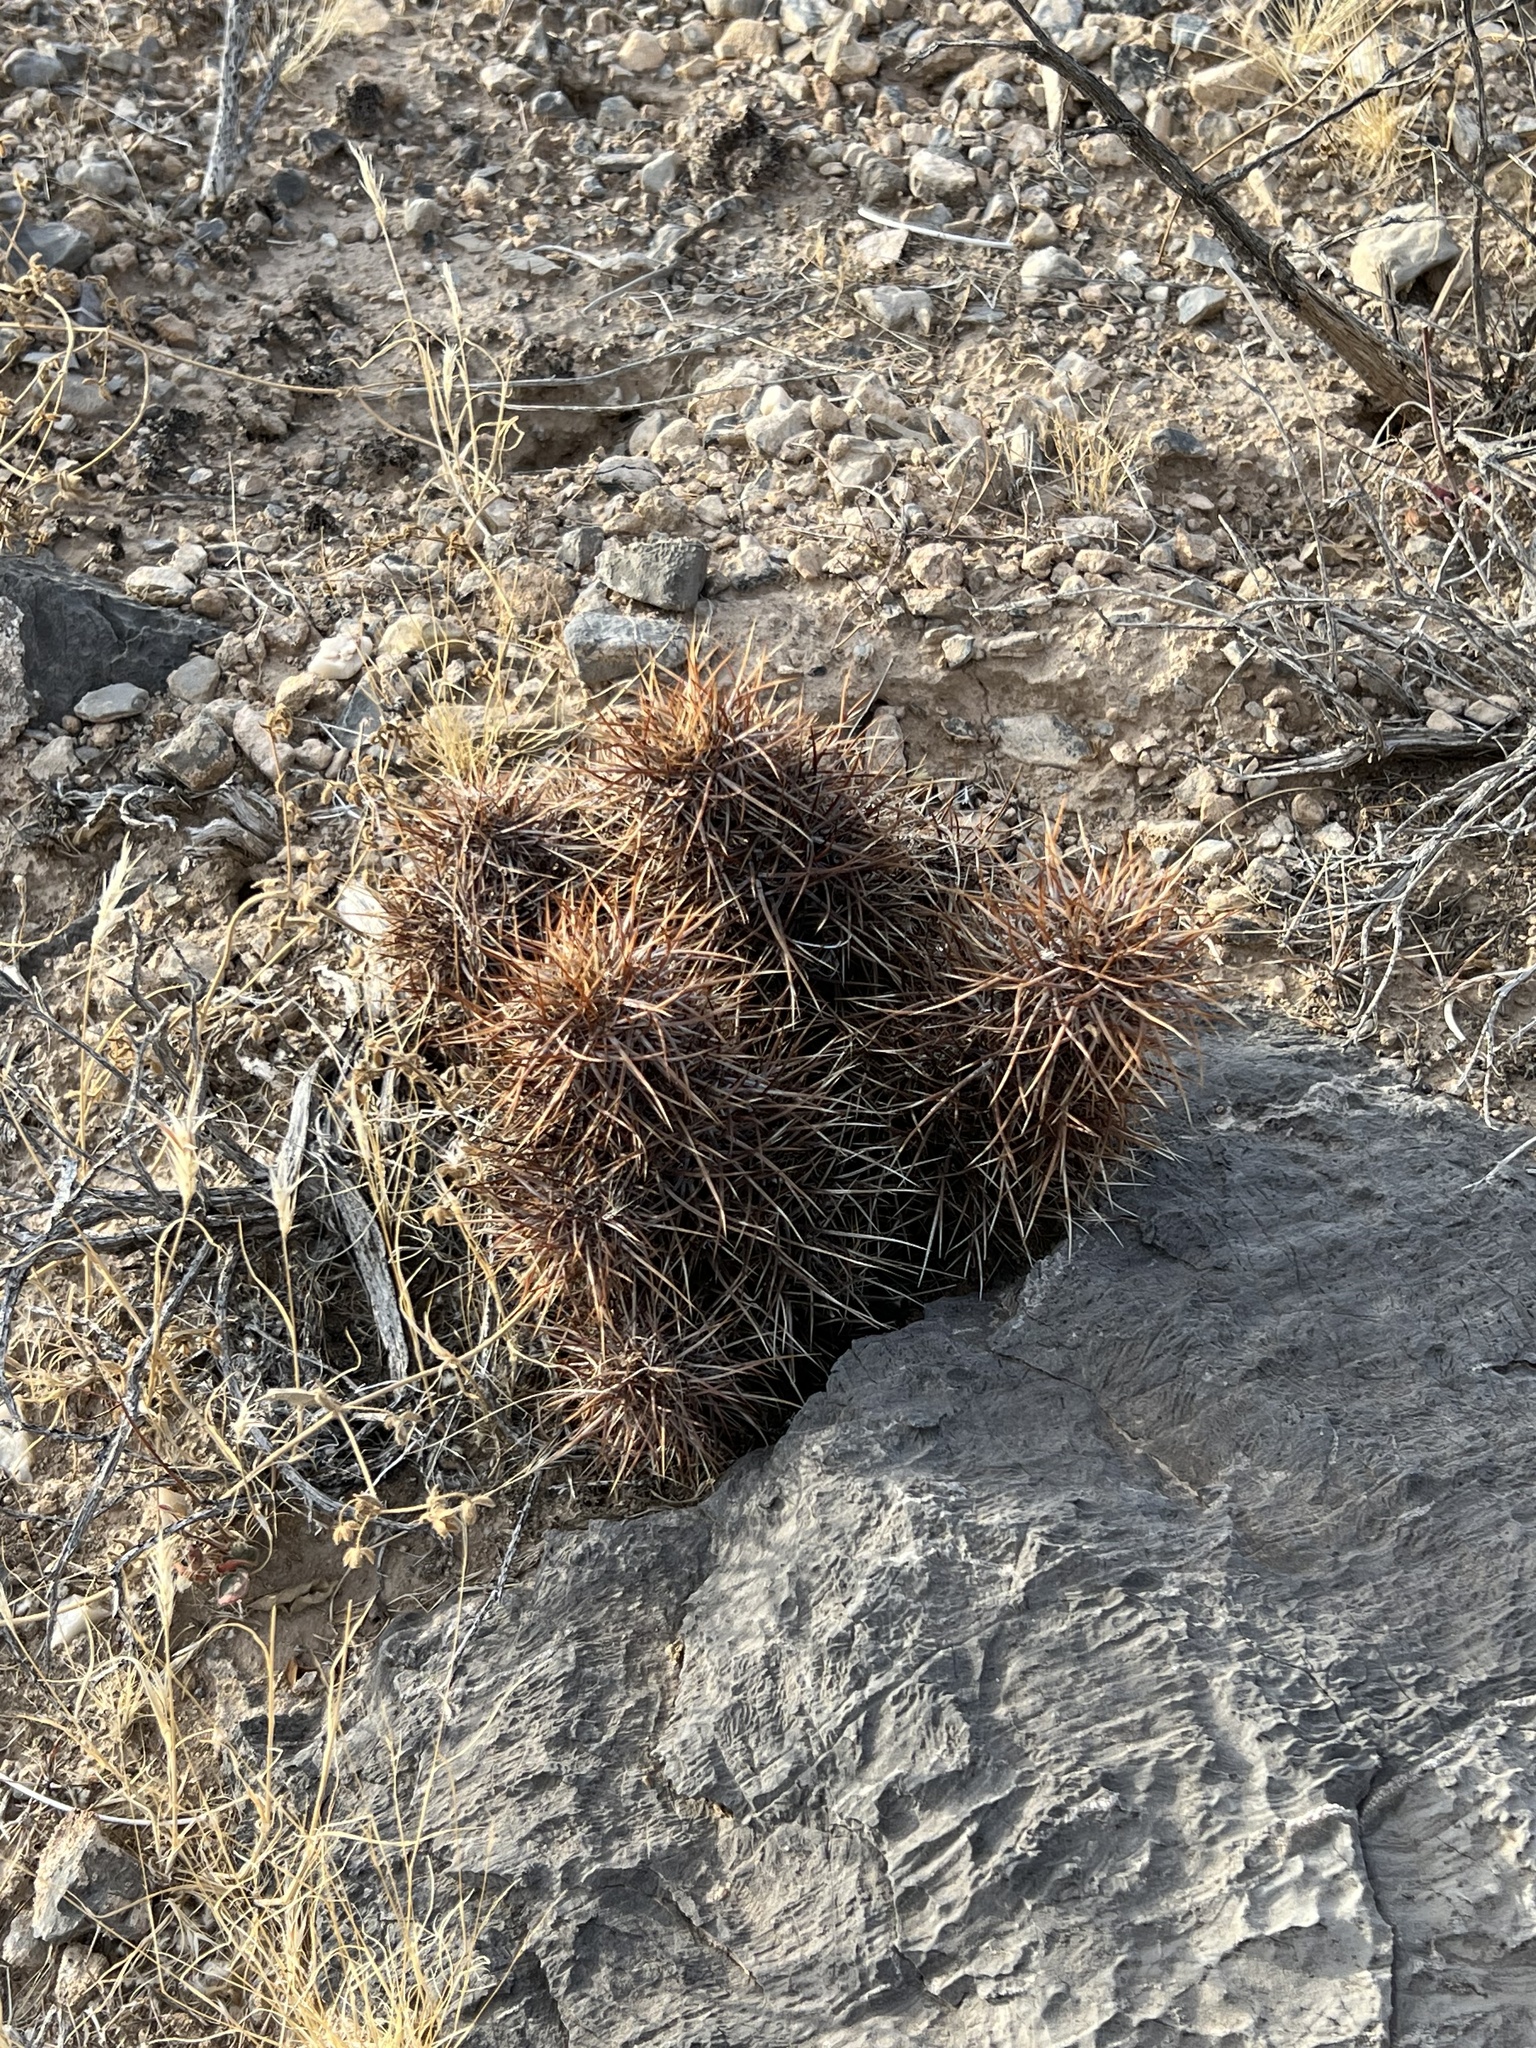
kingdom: Plantae
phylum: Tracheophyta
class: Magnoliopsida
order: Caryophyllales
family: Cactaceae
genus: Echinocereus
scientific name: Echinocereus engelmannii
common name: Engelmann's hedgehog cactus
